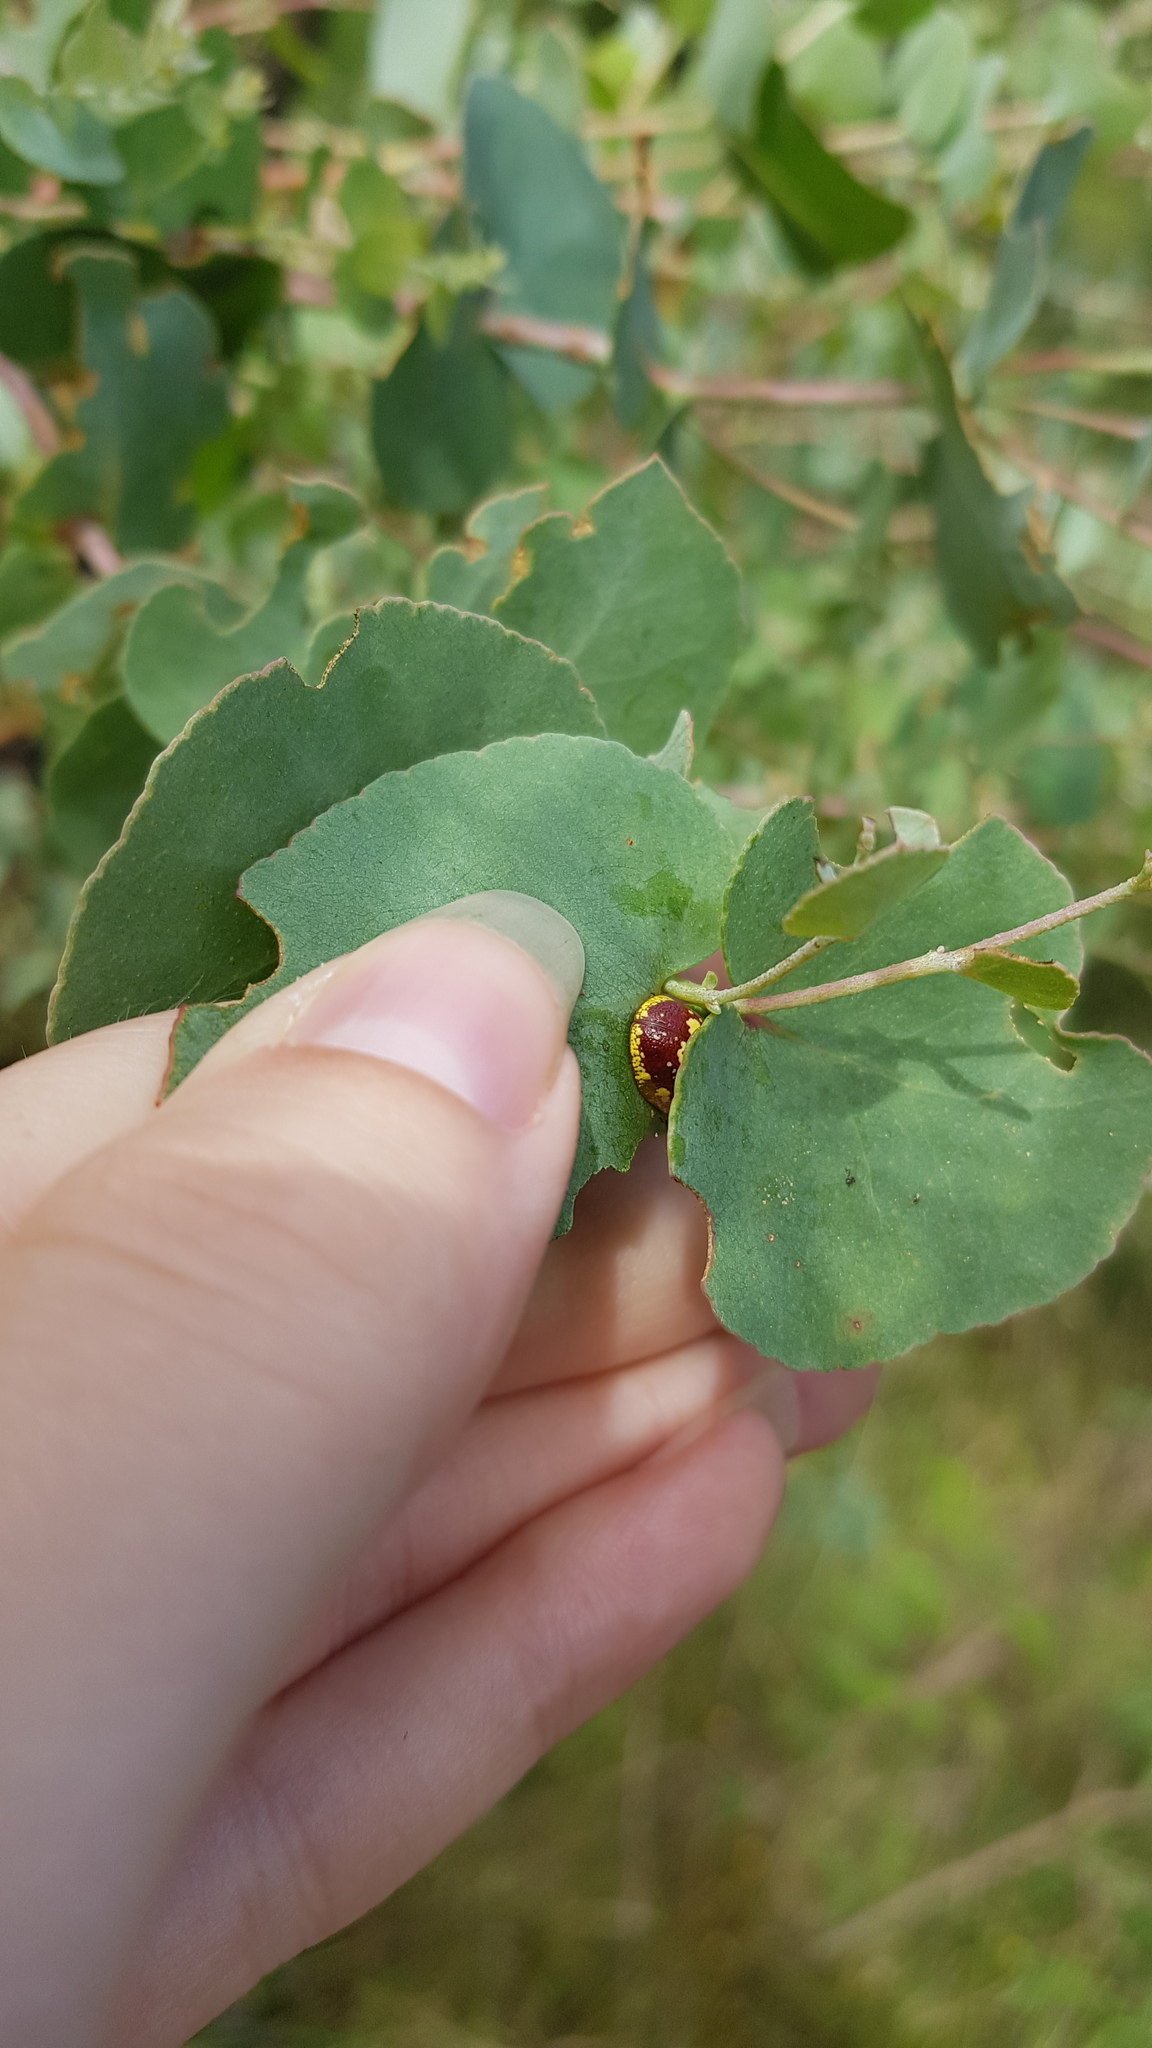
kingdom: Animalia
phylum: Arthropoda
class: Insecta
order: Coleoptera
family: Chrysomelidae
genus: Paropsis
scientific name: Paropsis maculata
